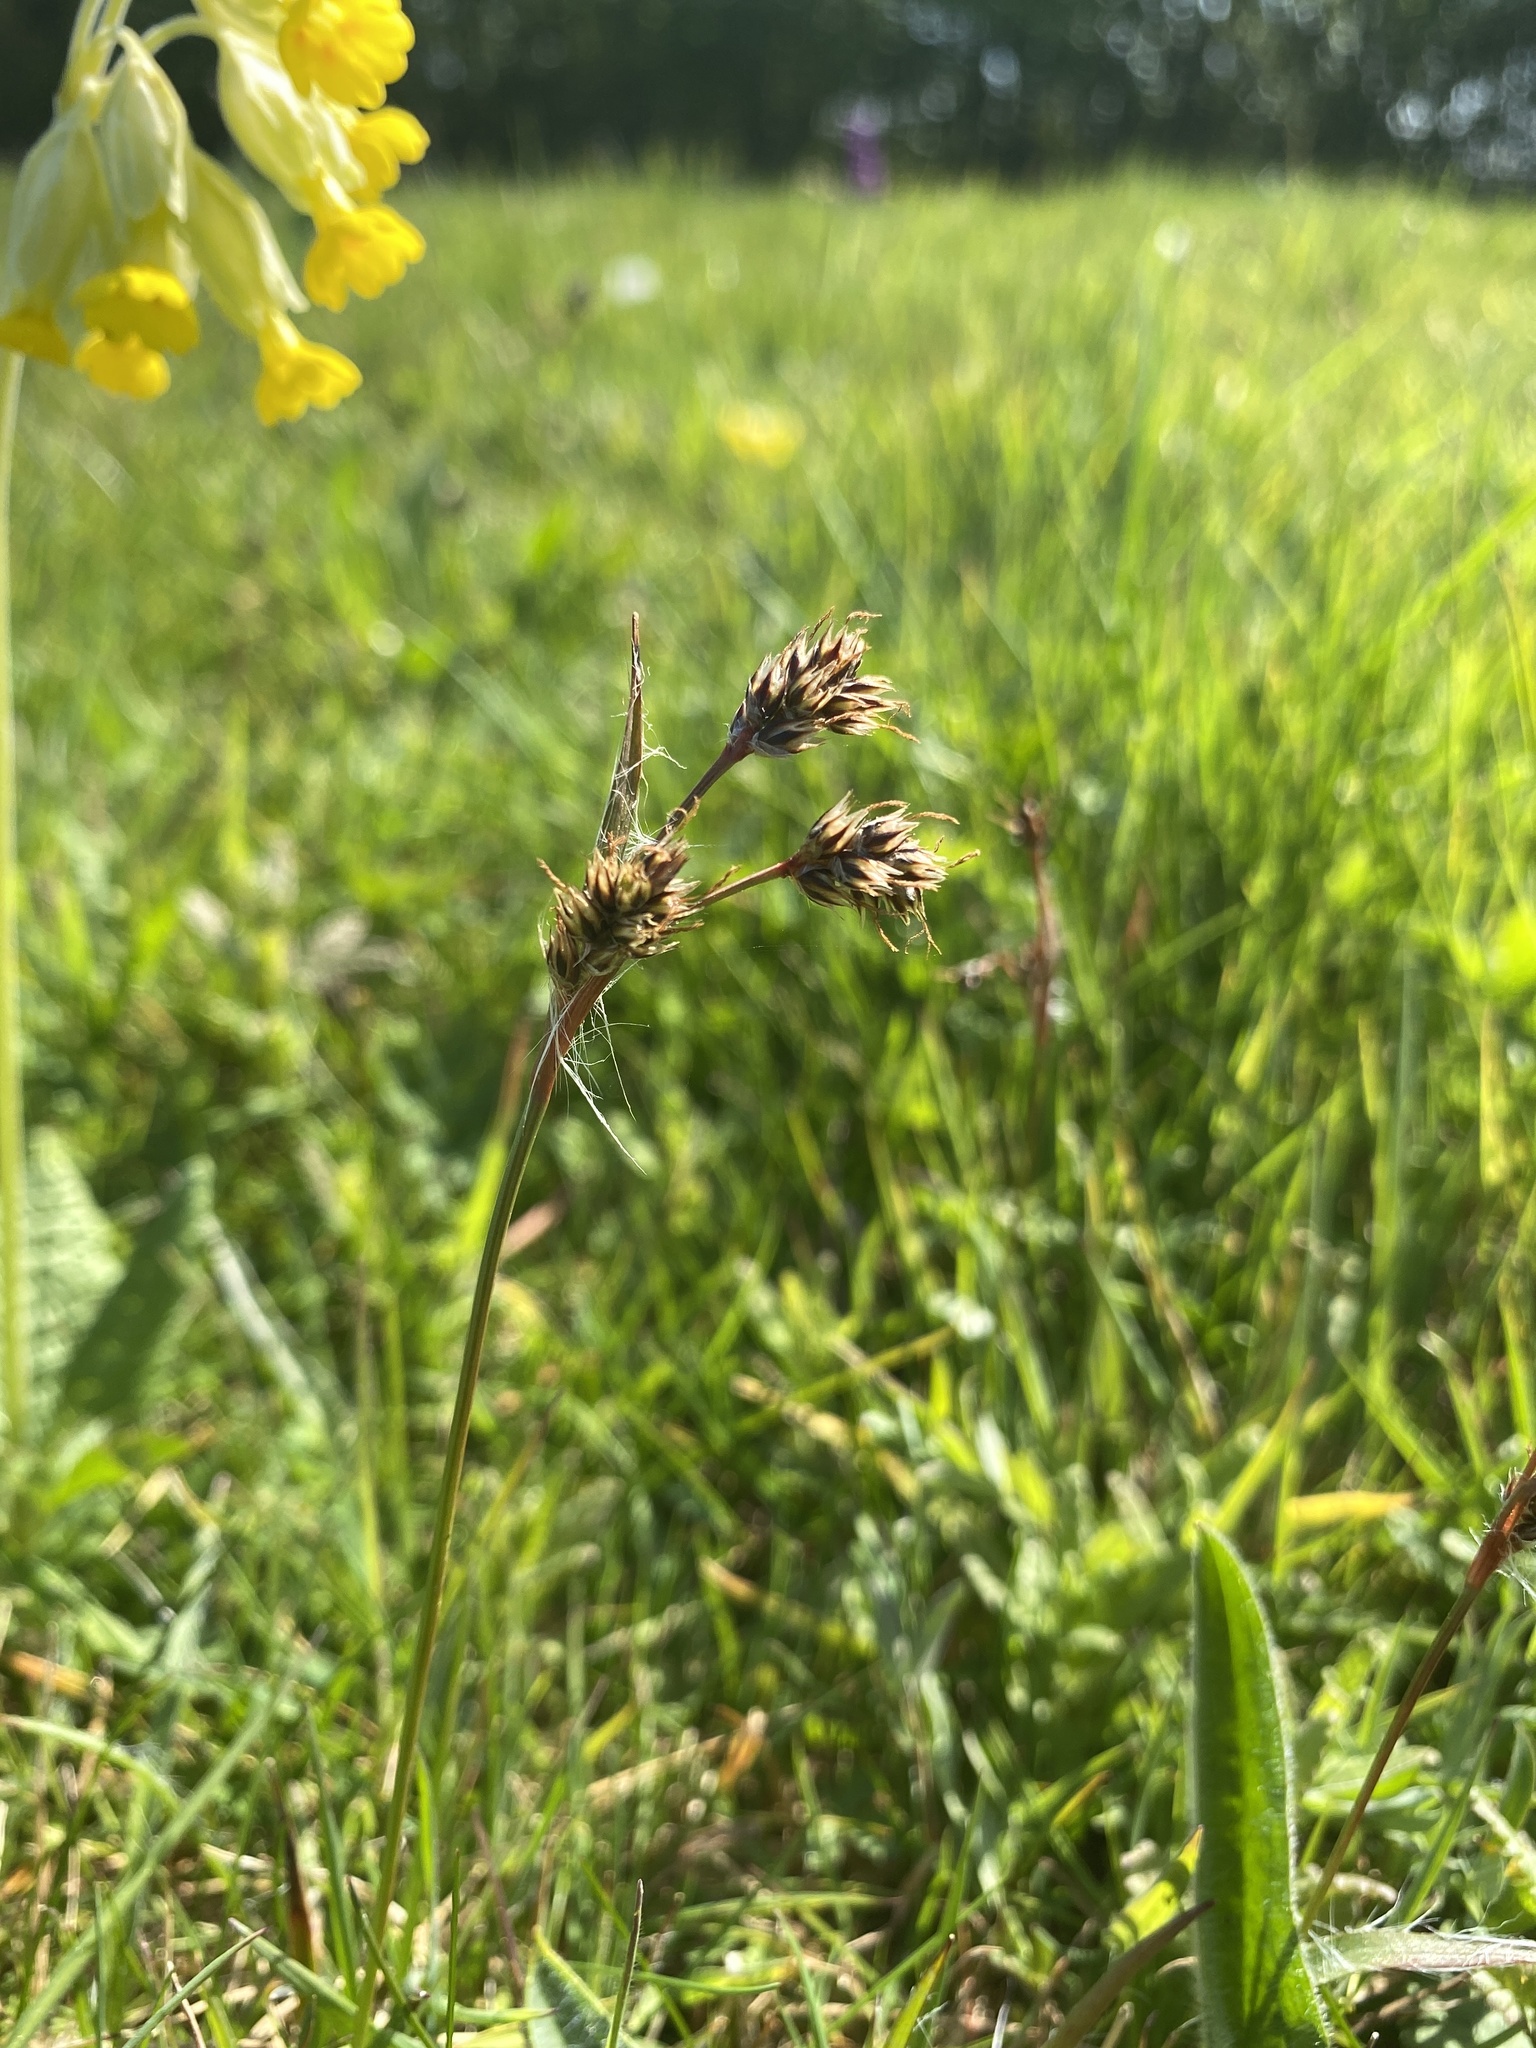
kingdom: Plantae
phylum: Tracheophyta
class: Liliopsida
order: Poales
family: Juncaceae
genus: Luzula
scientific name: Luzula campestris
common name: Field wood-rush
